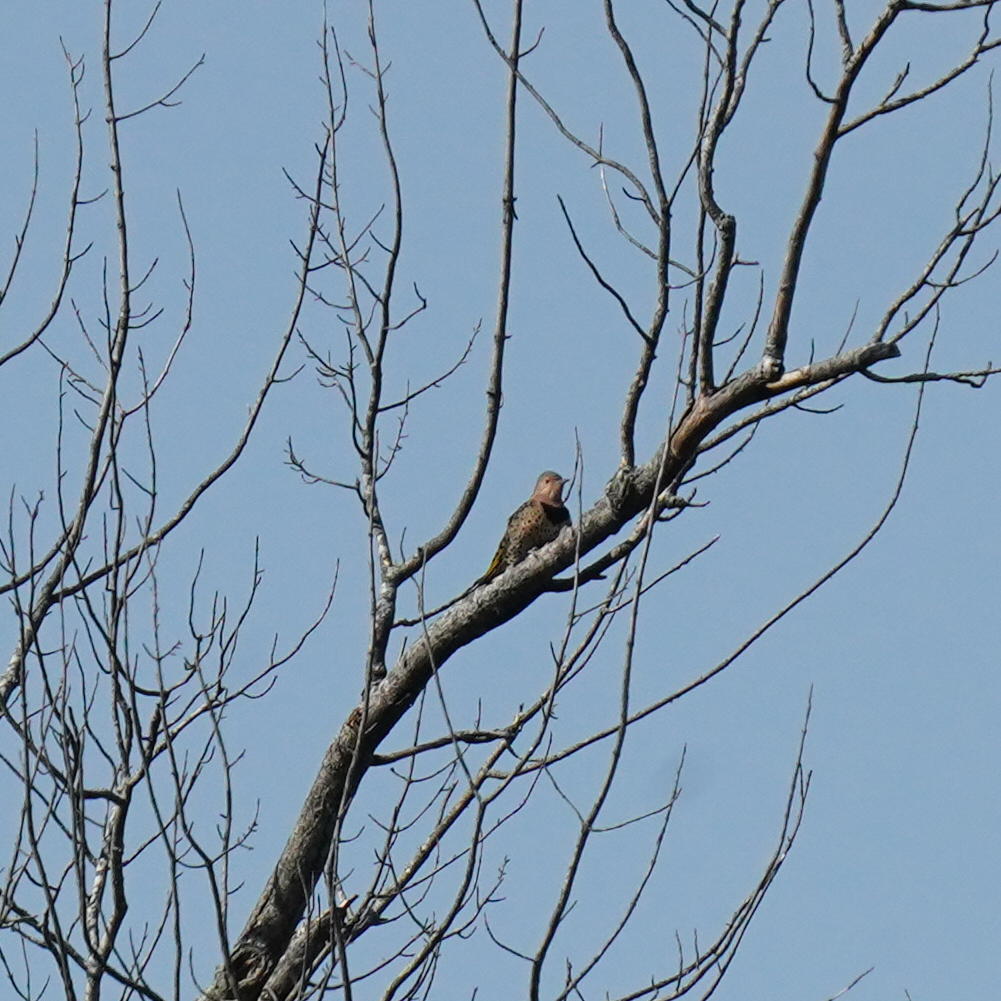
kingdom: Animalia
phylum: Chordata
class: Aves
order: Piciformes
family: Picidae
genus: Colaptes
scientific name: Colaptes auratus
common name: Northern flicker
